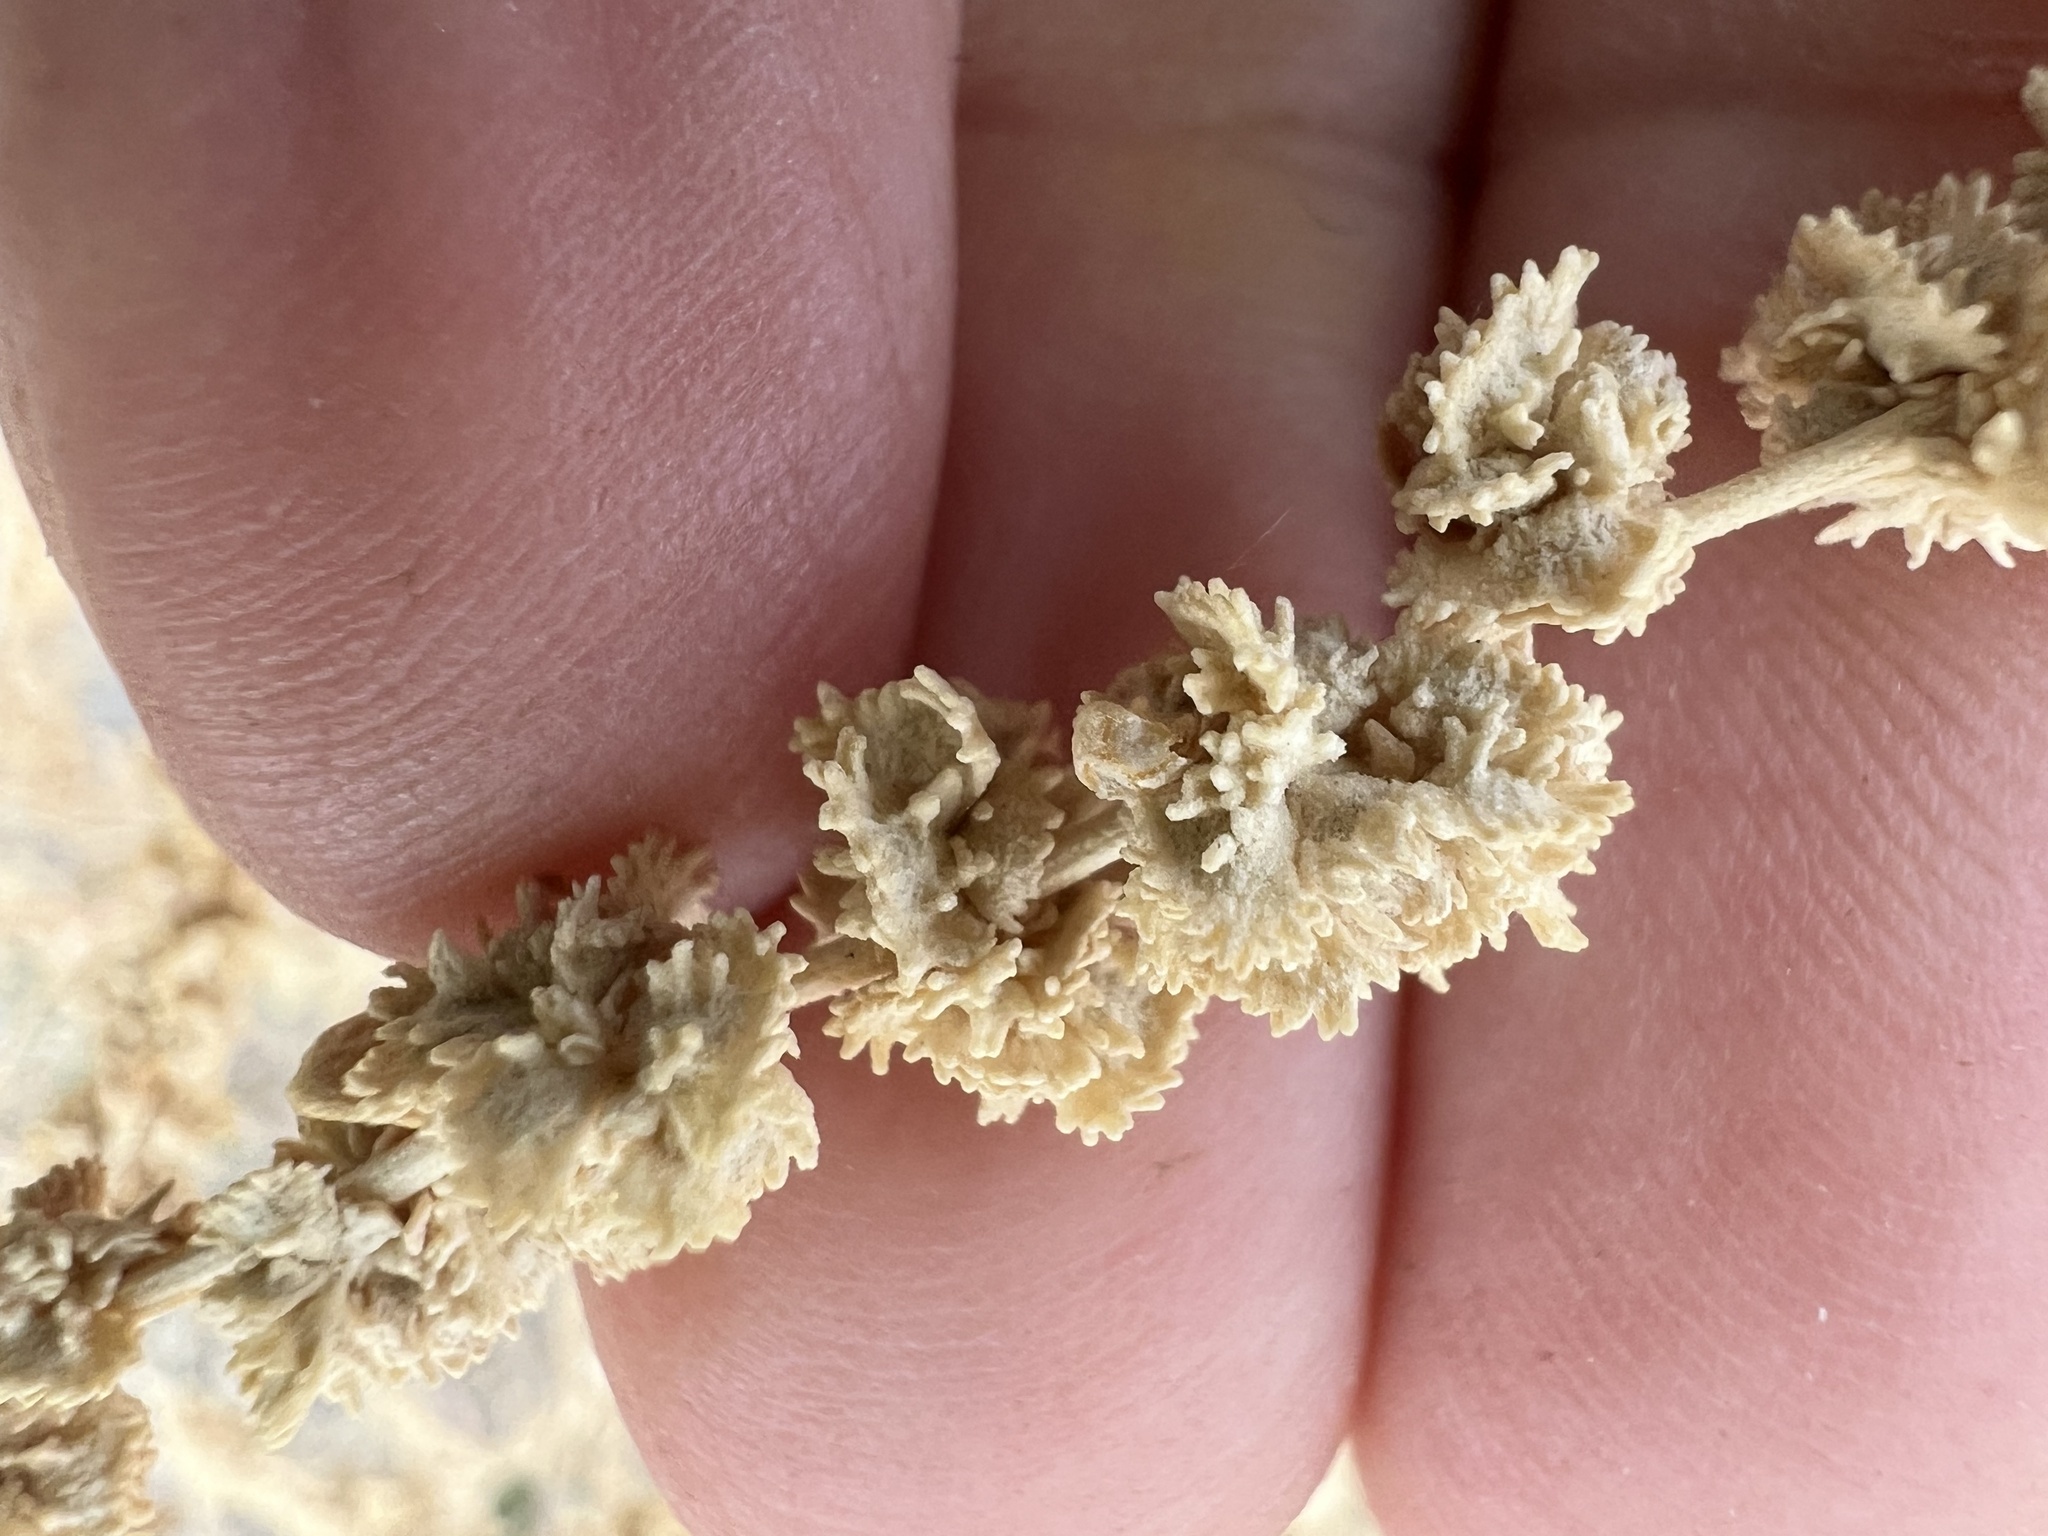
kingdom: Plantae
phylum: Tracheophyta
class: Magnoliopsida
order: Caryophyllales
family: Amaranthaceae
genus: Atriplex
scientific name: Atriplex polycarpa
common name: Desert saltbush
